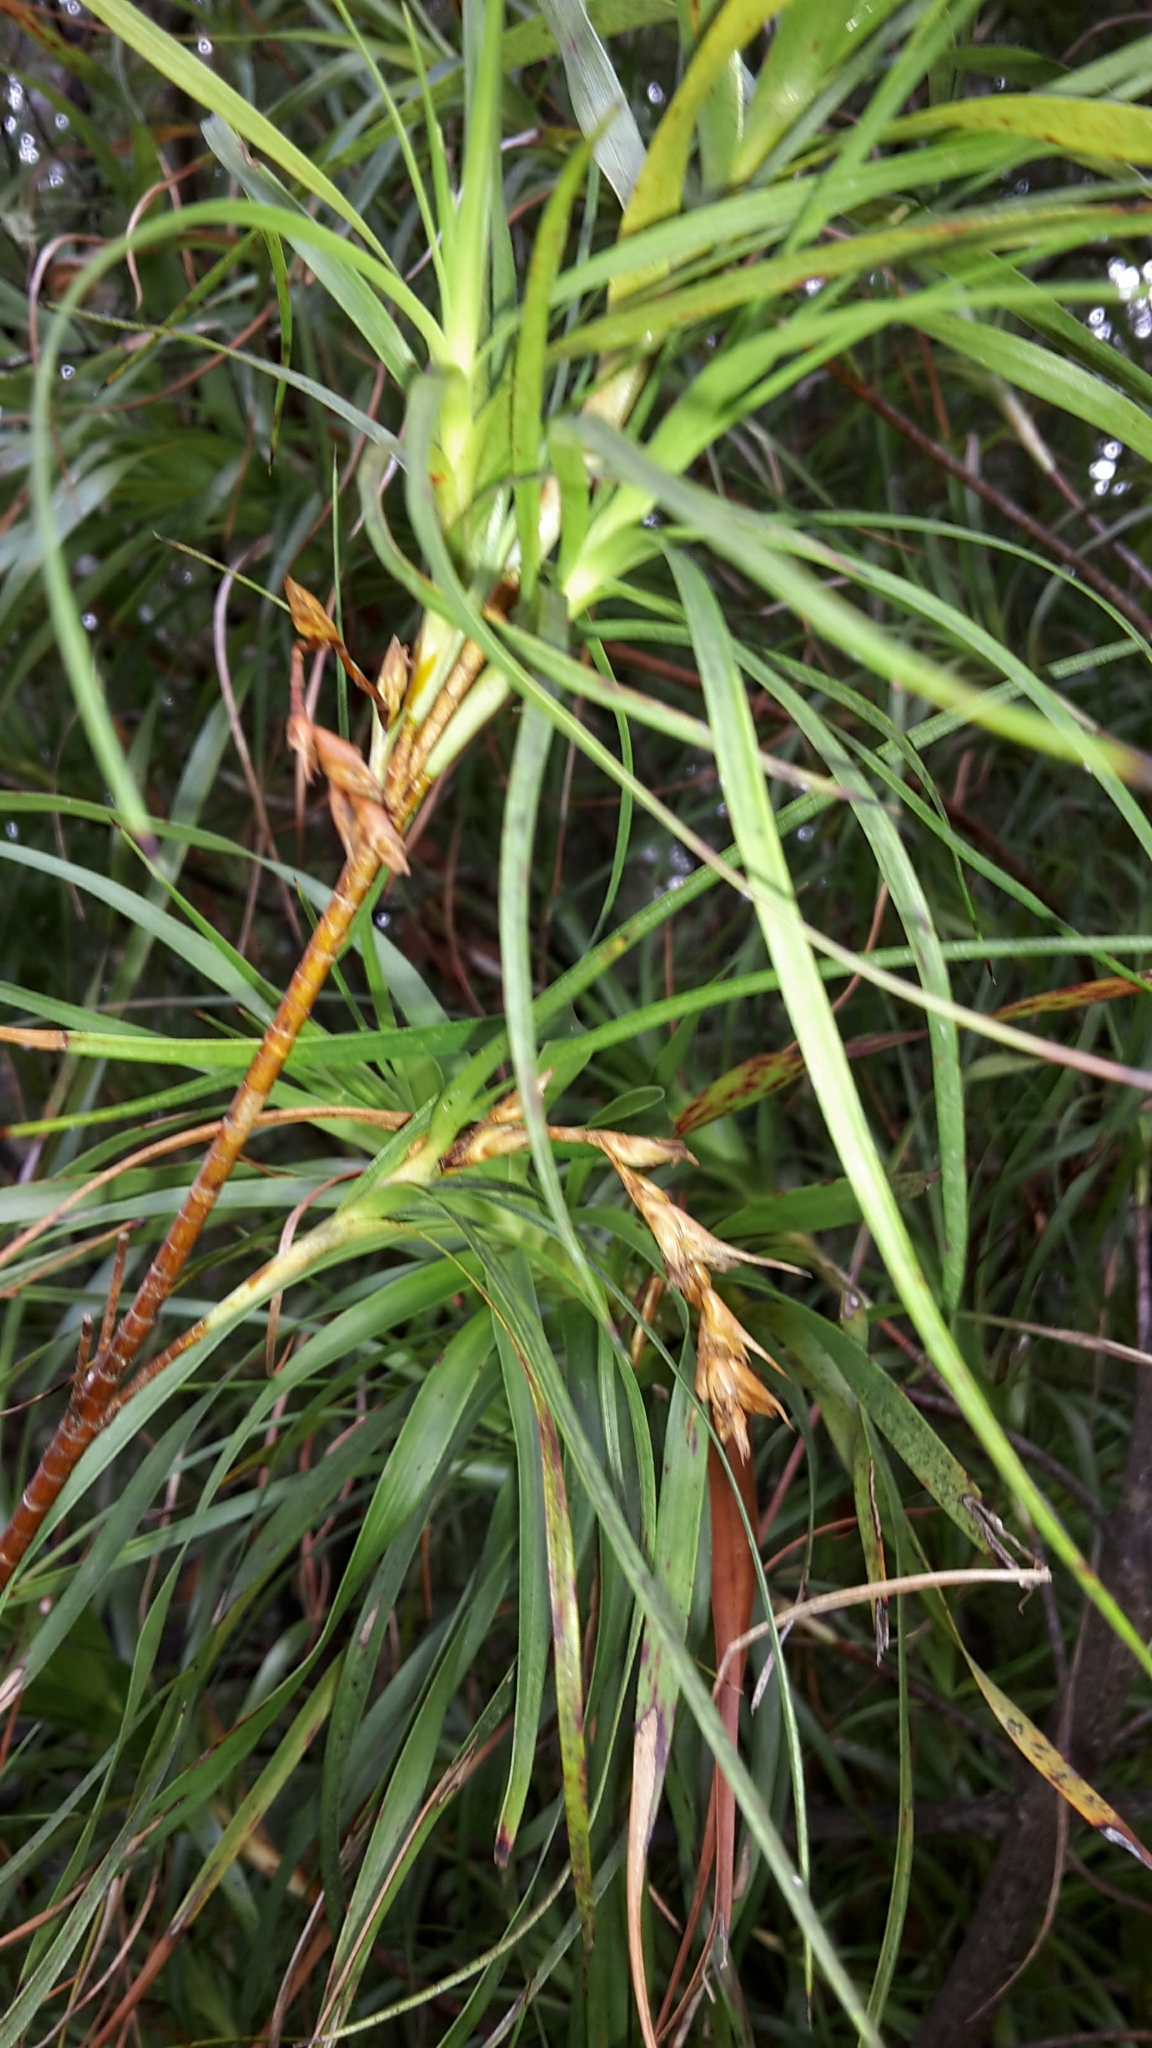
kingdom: Plantae
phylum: Tracheophyta
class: Magnoliopsida
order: Ericales
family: Ericaceae
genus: Dracophyllum
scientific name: Dracophyllum sinclairii
